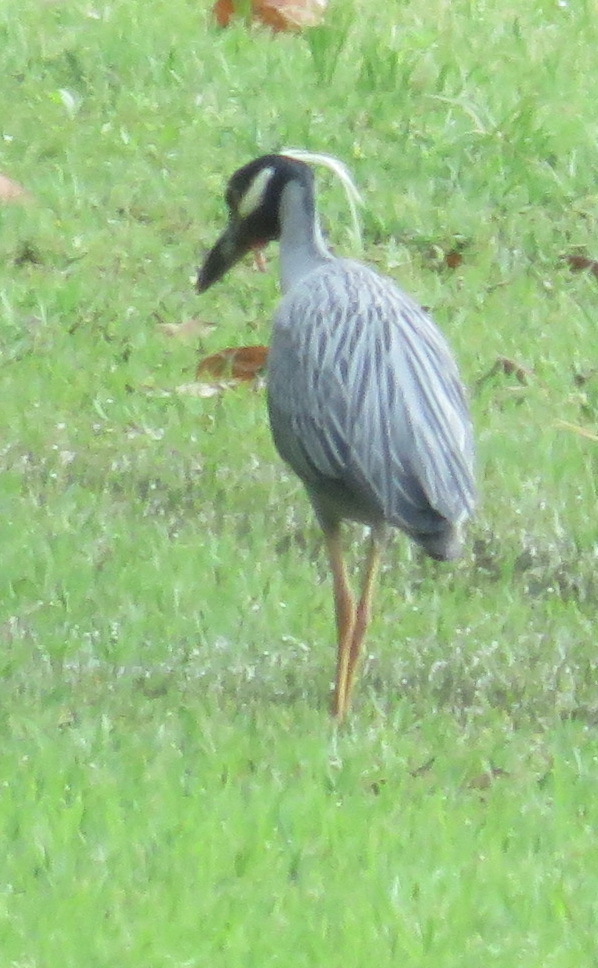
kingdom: Animalia
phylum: Chordata
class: Aves
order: Pelecaniformes
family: Ardeidae
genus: Nyctanassa
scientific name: Nyctanassa violacea
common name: Yellow-crowned night heron
